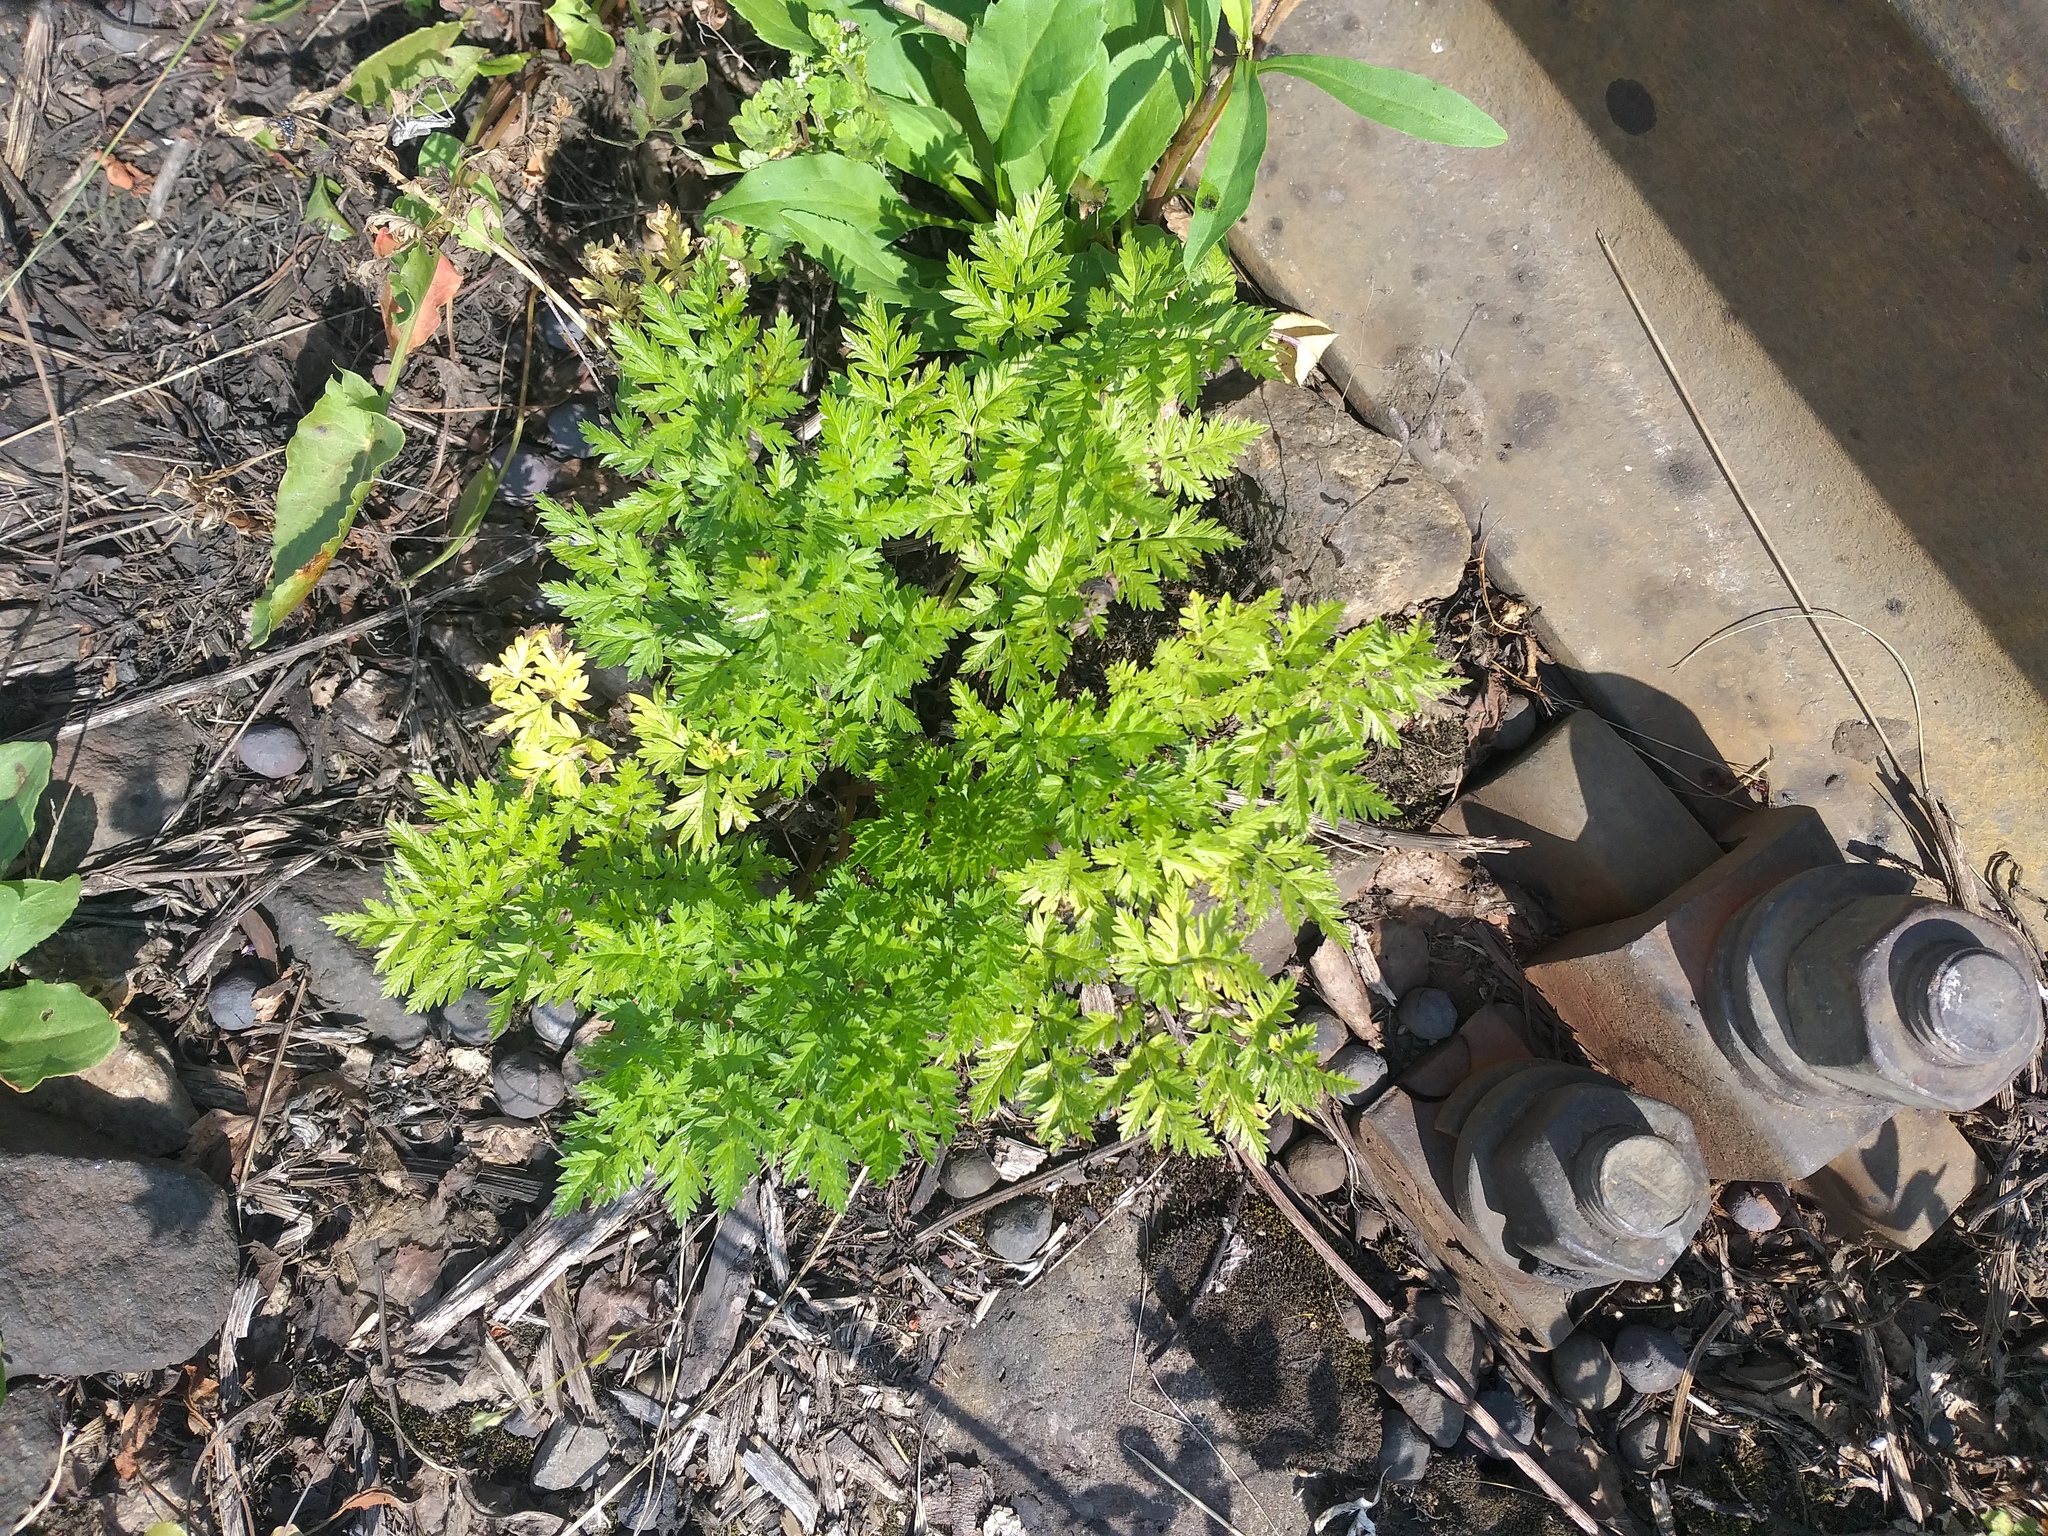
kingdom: Plantae
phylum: Tracheophyta
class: Magnoliopsida
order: Apiales
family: Apiaceae
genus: Anthriscus
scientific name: Anthriscus sylvestris
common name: Cow parsley
